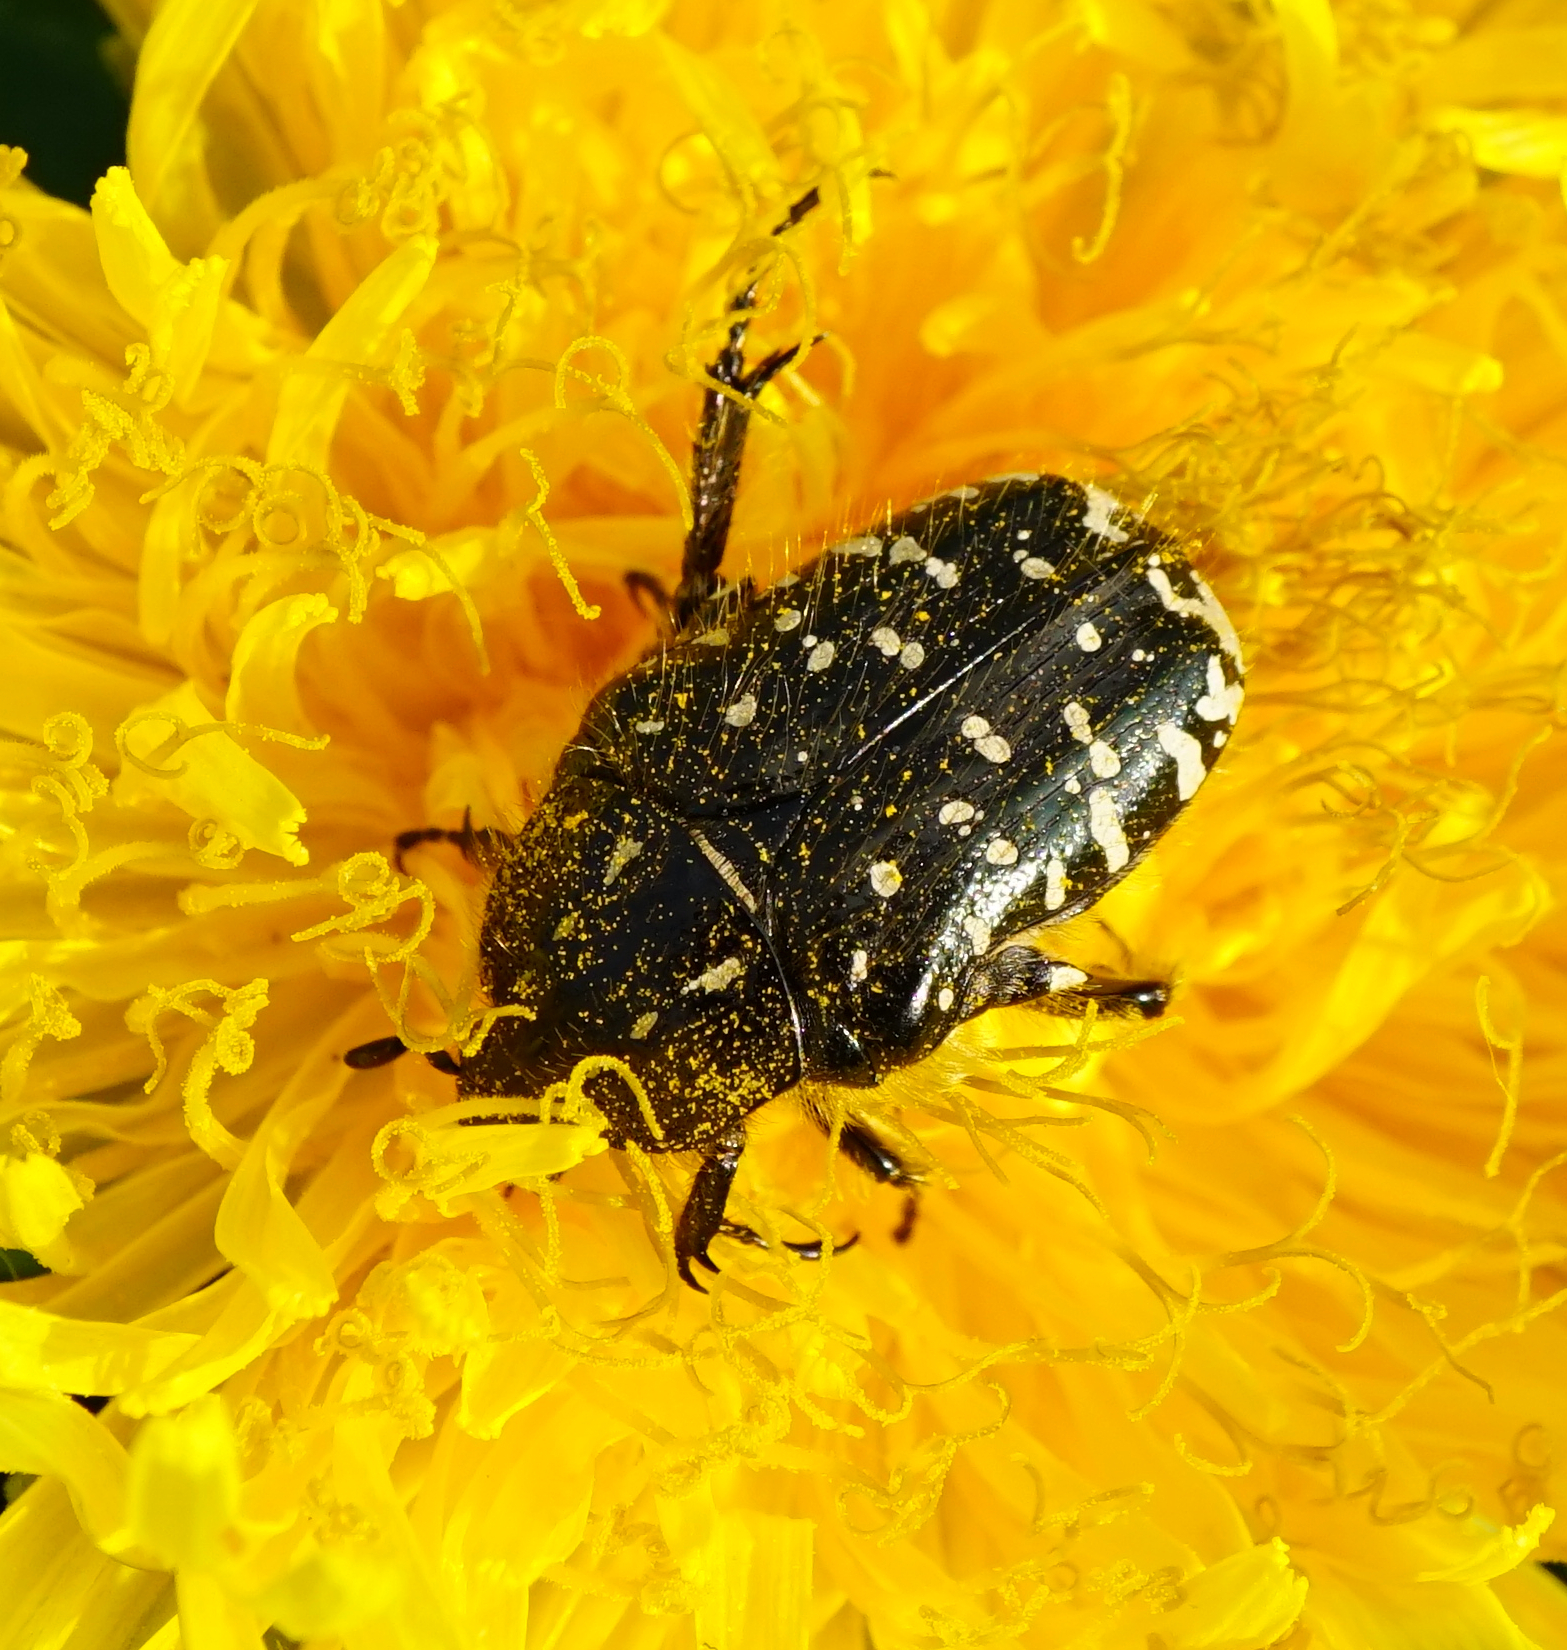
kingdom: Animalia
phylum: Arthropoda
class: Insecta
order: Coleoptera
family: Scarabaeidae
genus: Oxythyrea
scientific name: Oxythyrea funesta
